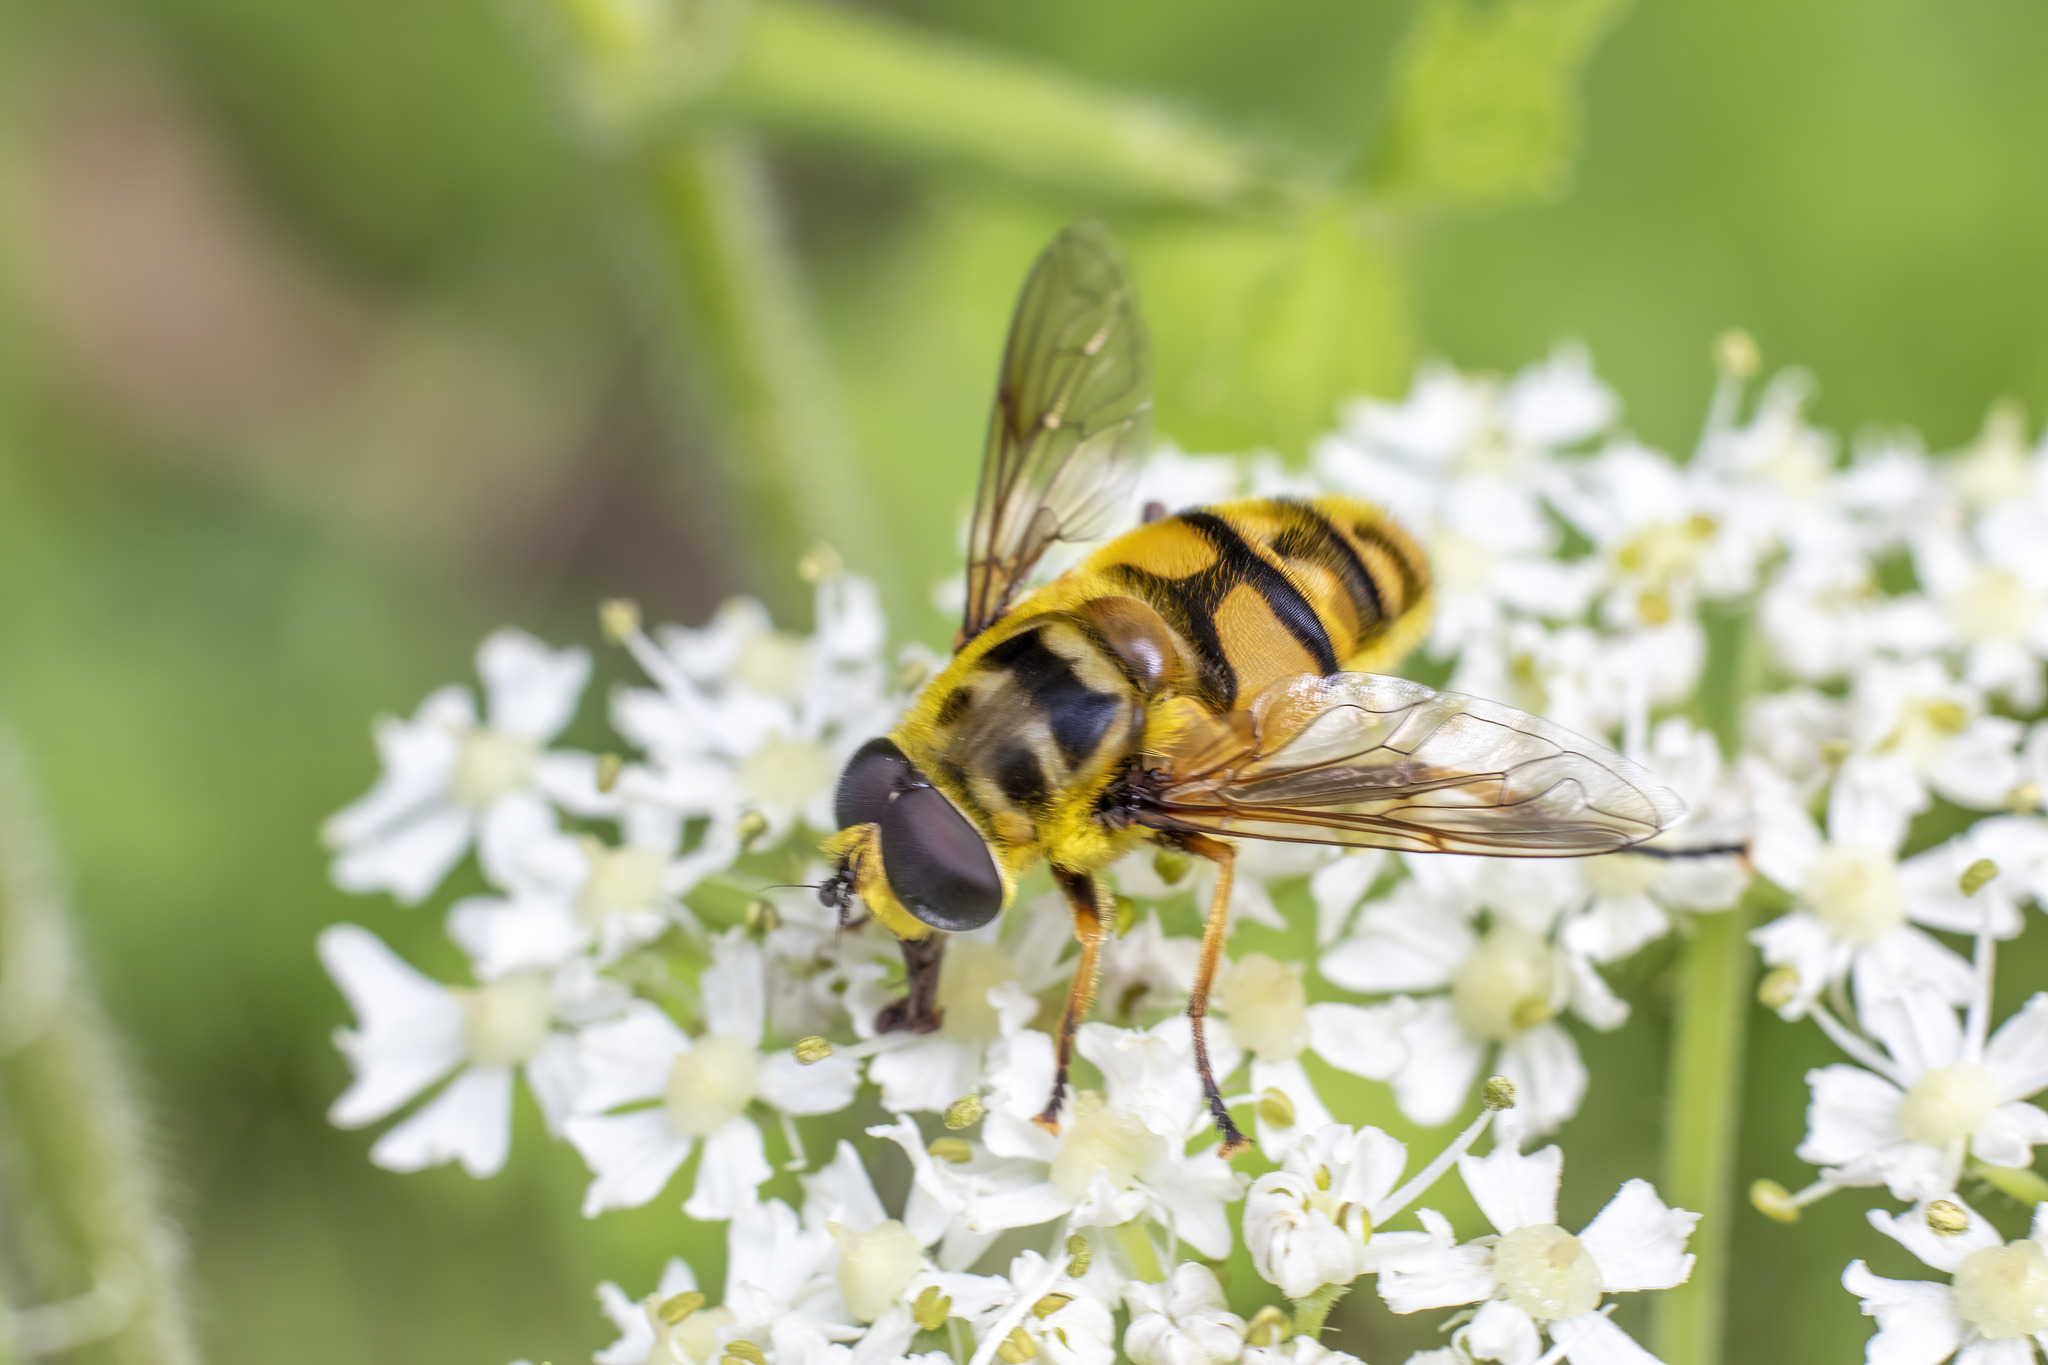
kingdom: Animalia
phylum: Arthropoda
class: Insecta
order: Diptera
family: Syrphidae
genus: Myathropa
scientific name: Myathropa florea
